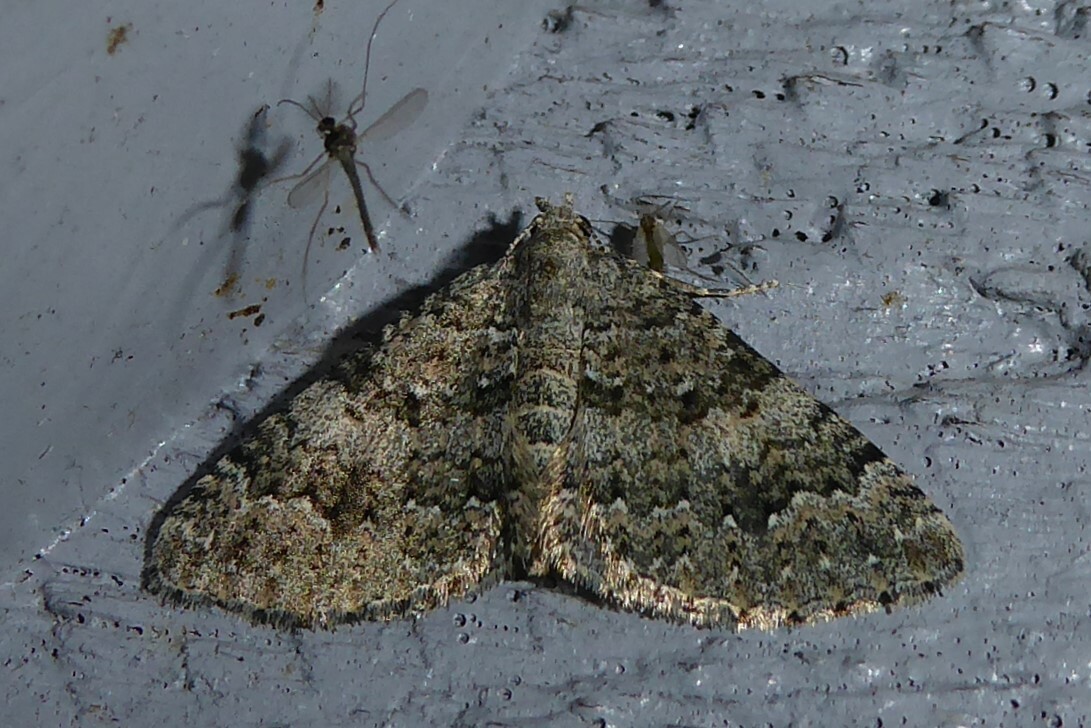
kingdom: Animalia
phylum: Arthropoda
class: Insecta
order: Lepidoptera
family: Geometridae
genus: Helastia
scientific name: Helastia corcularia
